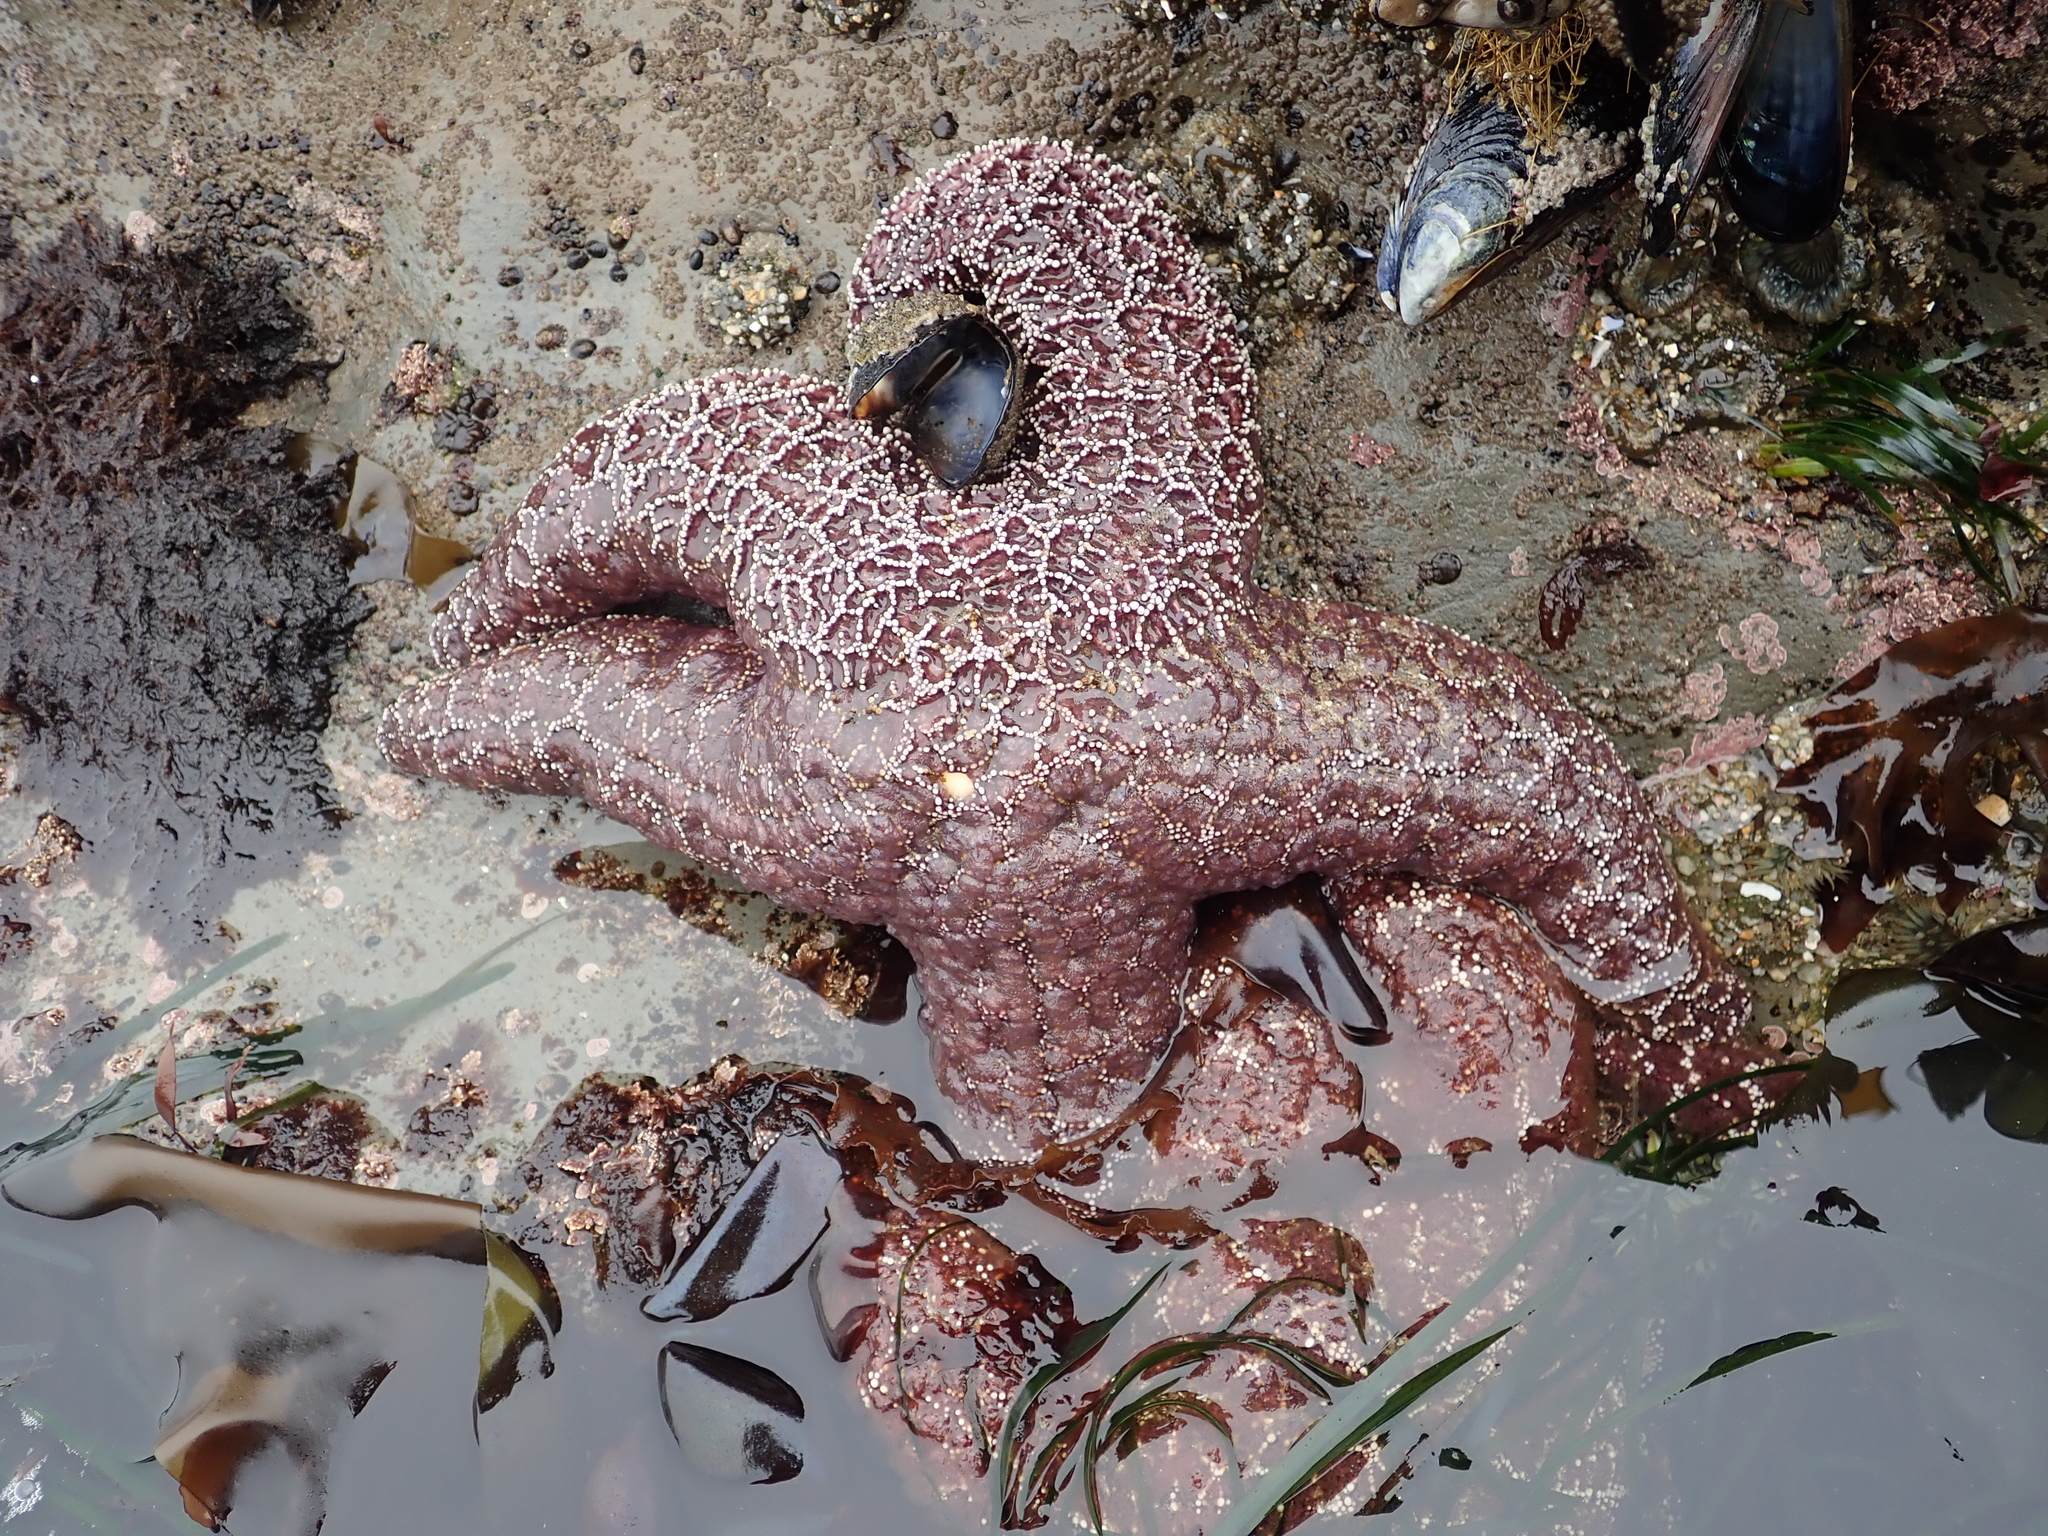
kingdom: Animalia
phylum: Echinodermata
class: Asteroidea
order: Forcipulatida
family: Asteriidae
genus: Pisaster
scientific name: Pisaster ochraceus
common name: Ochre stars
